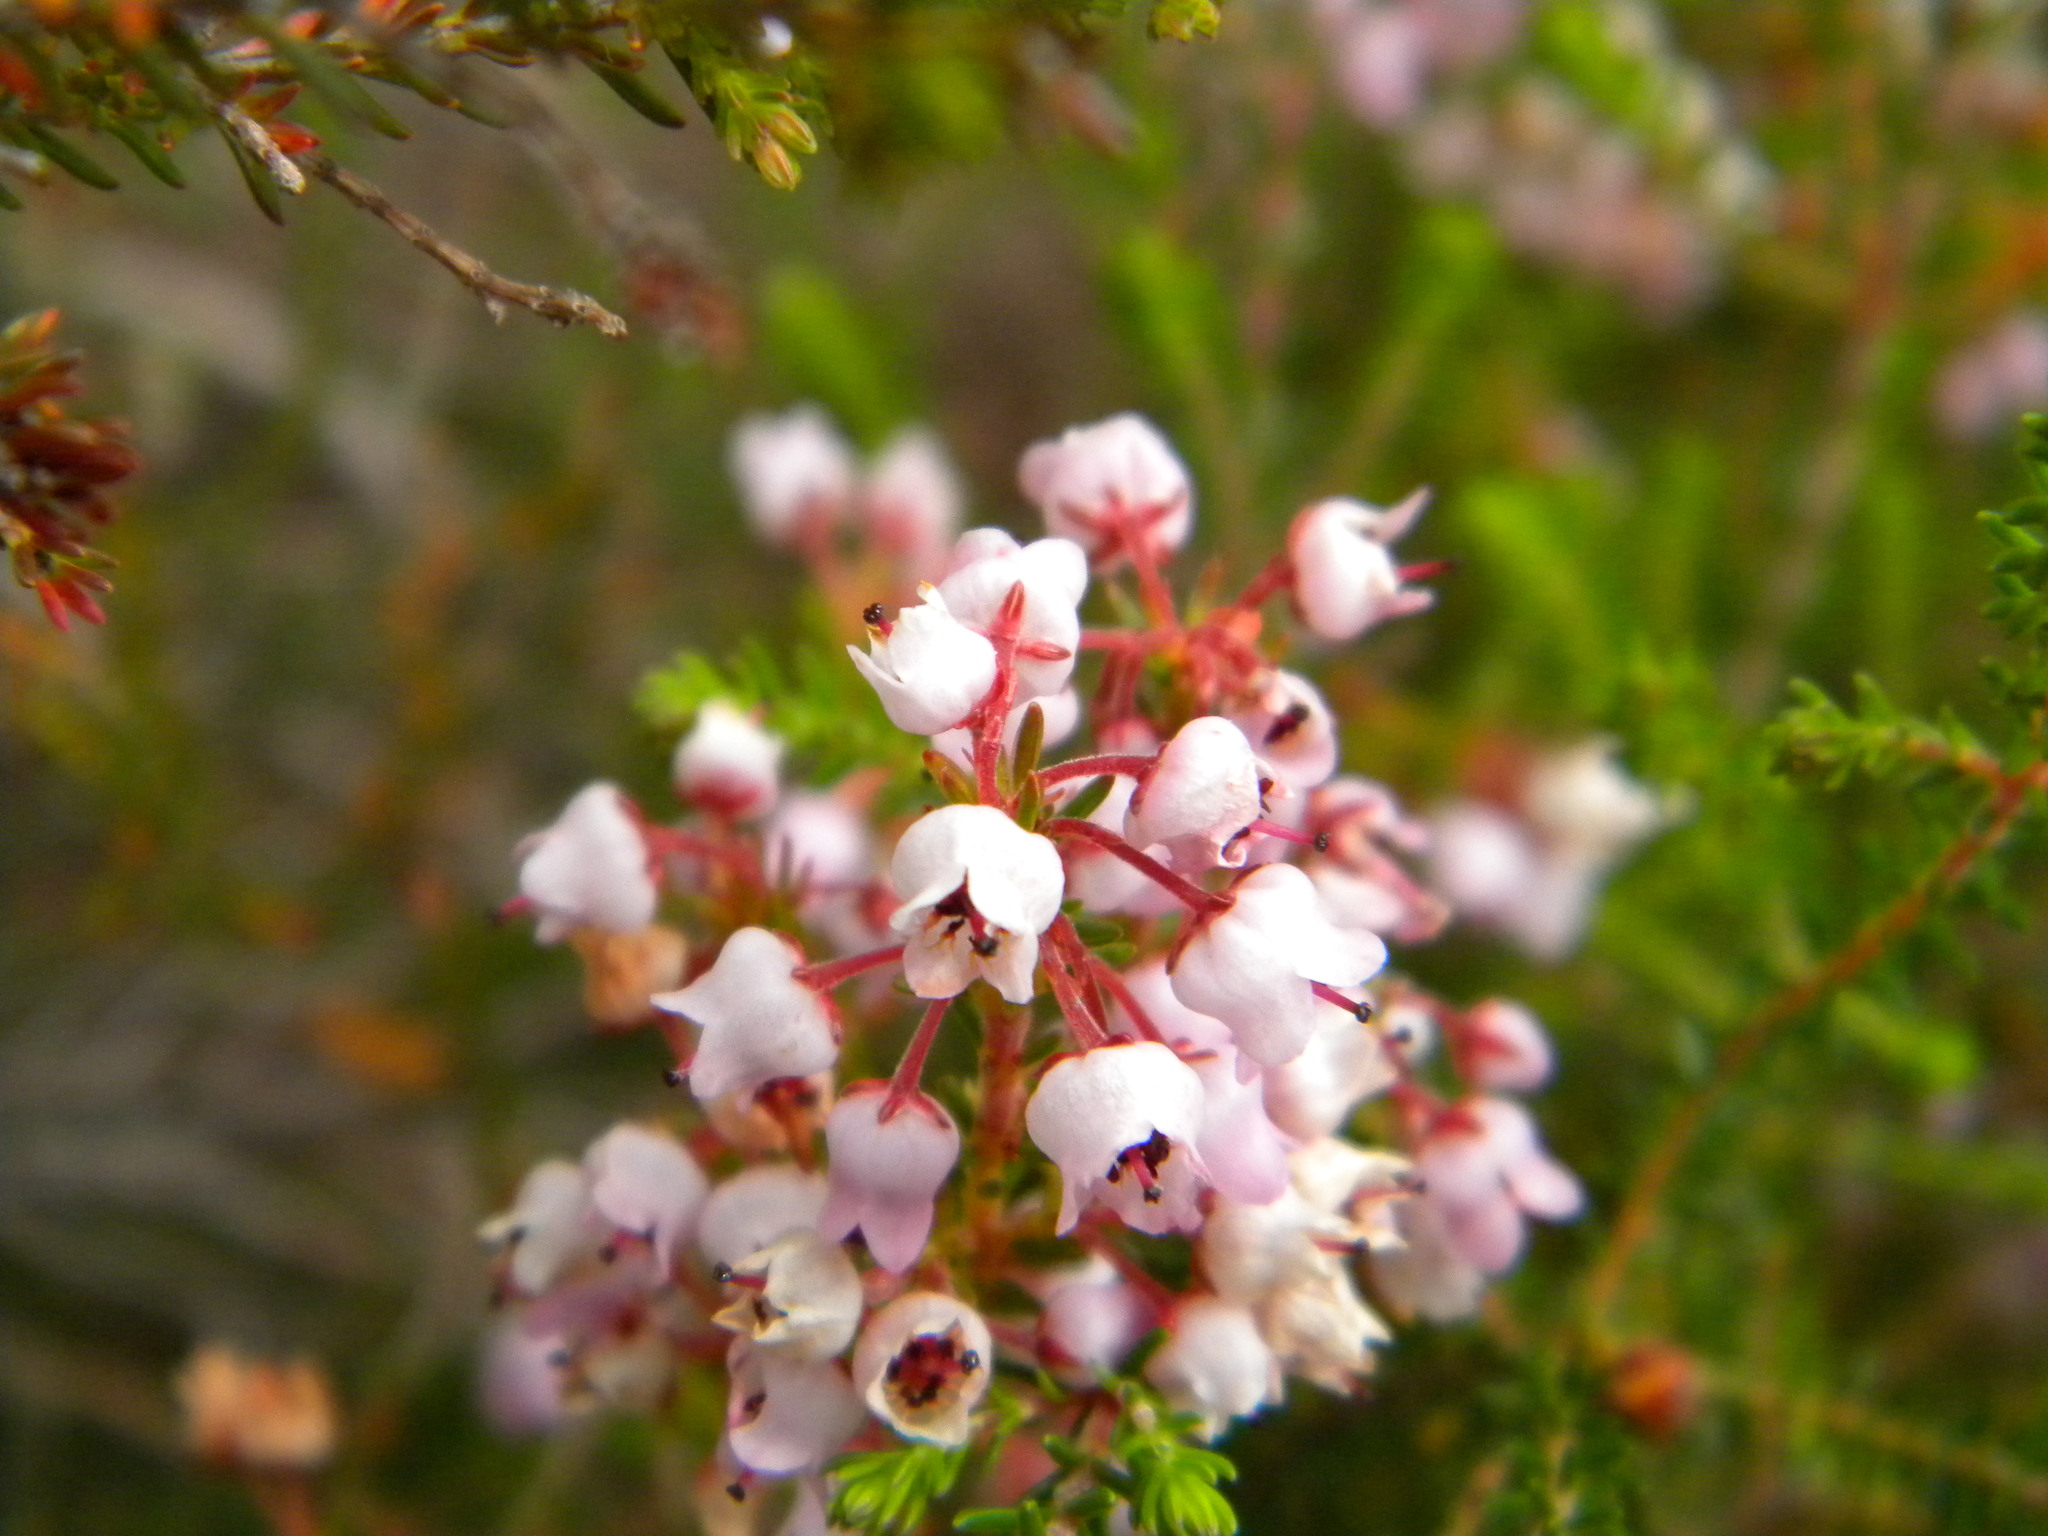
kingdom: Plantae
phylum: Tracheophyta
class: Magnoliopsida
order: Ericales
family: Ericaceae
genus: Erica
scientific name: Erica curvirostris
